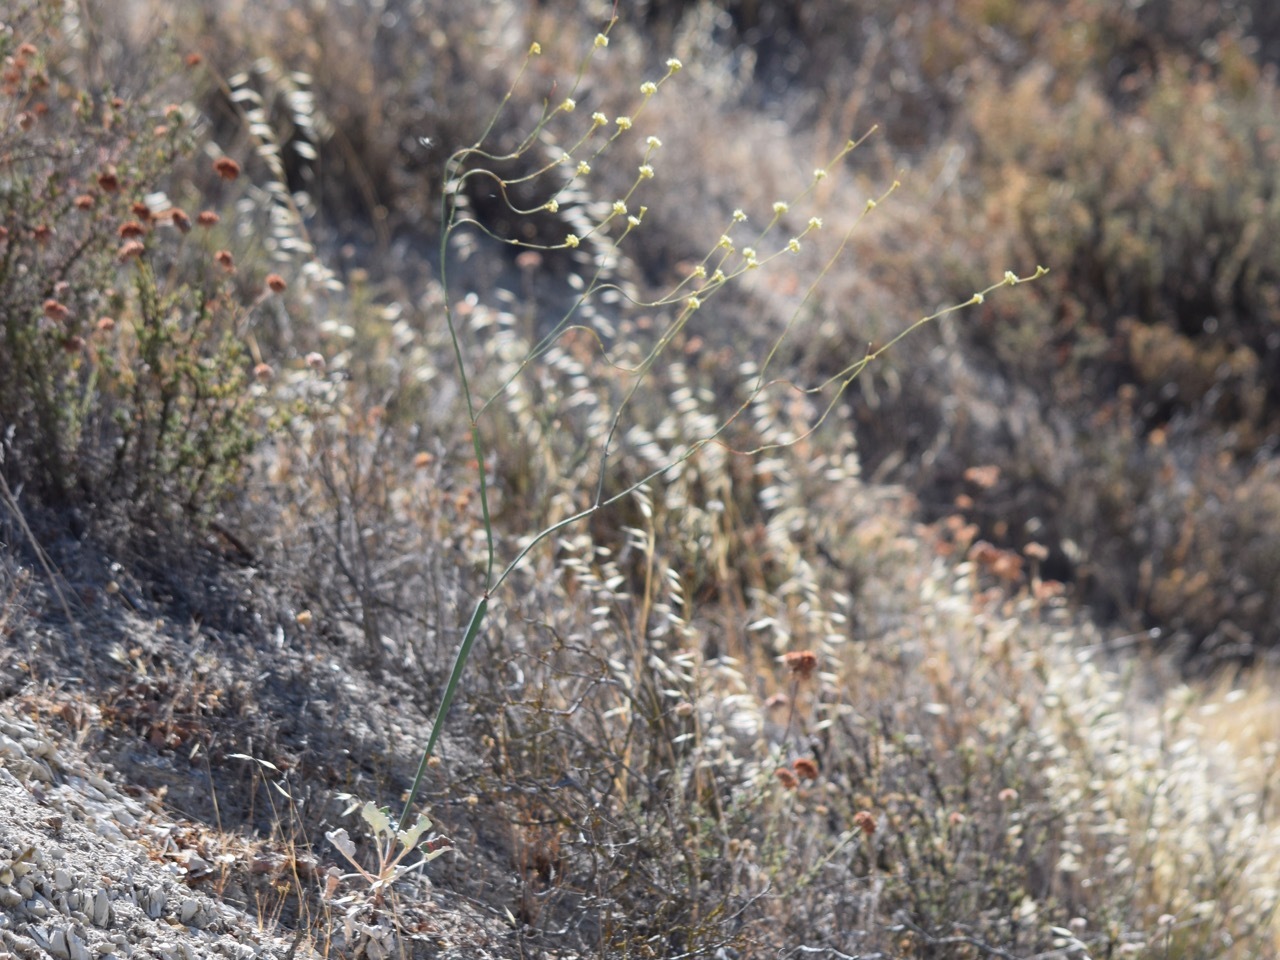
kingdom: Plantae
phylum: Tracheophyta
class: Magnoliopsida
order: Caryophyllales
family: Polygonaceae
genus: Eriogonum
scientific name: Eriogonum nudum
